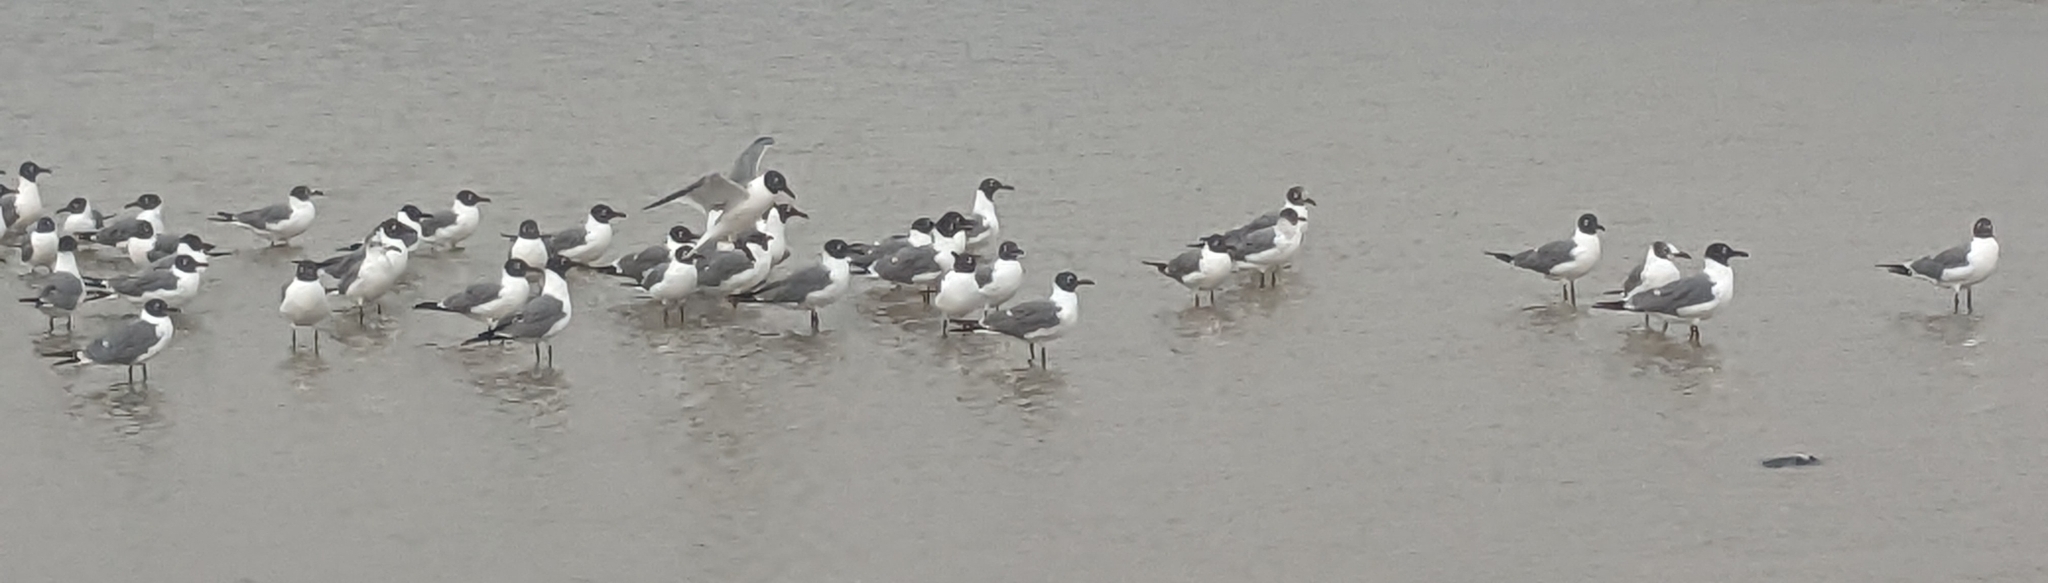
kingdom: Animalia
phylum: Chordata
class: Aves
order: Charadriiformes
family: Laridae
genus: Leucophaeus
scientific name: Leucophaeus atricilla
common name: Laughing gull
